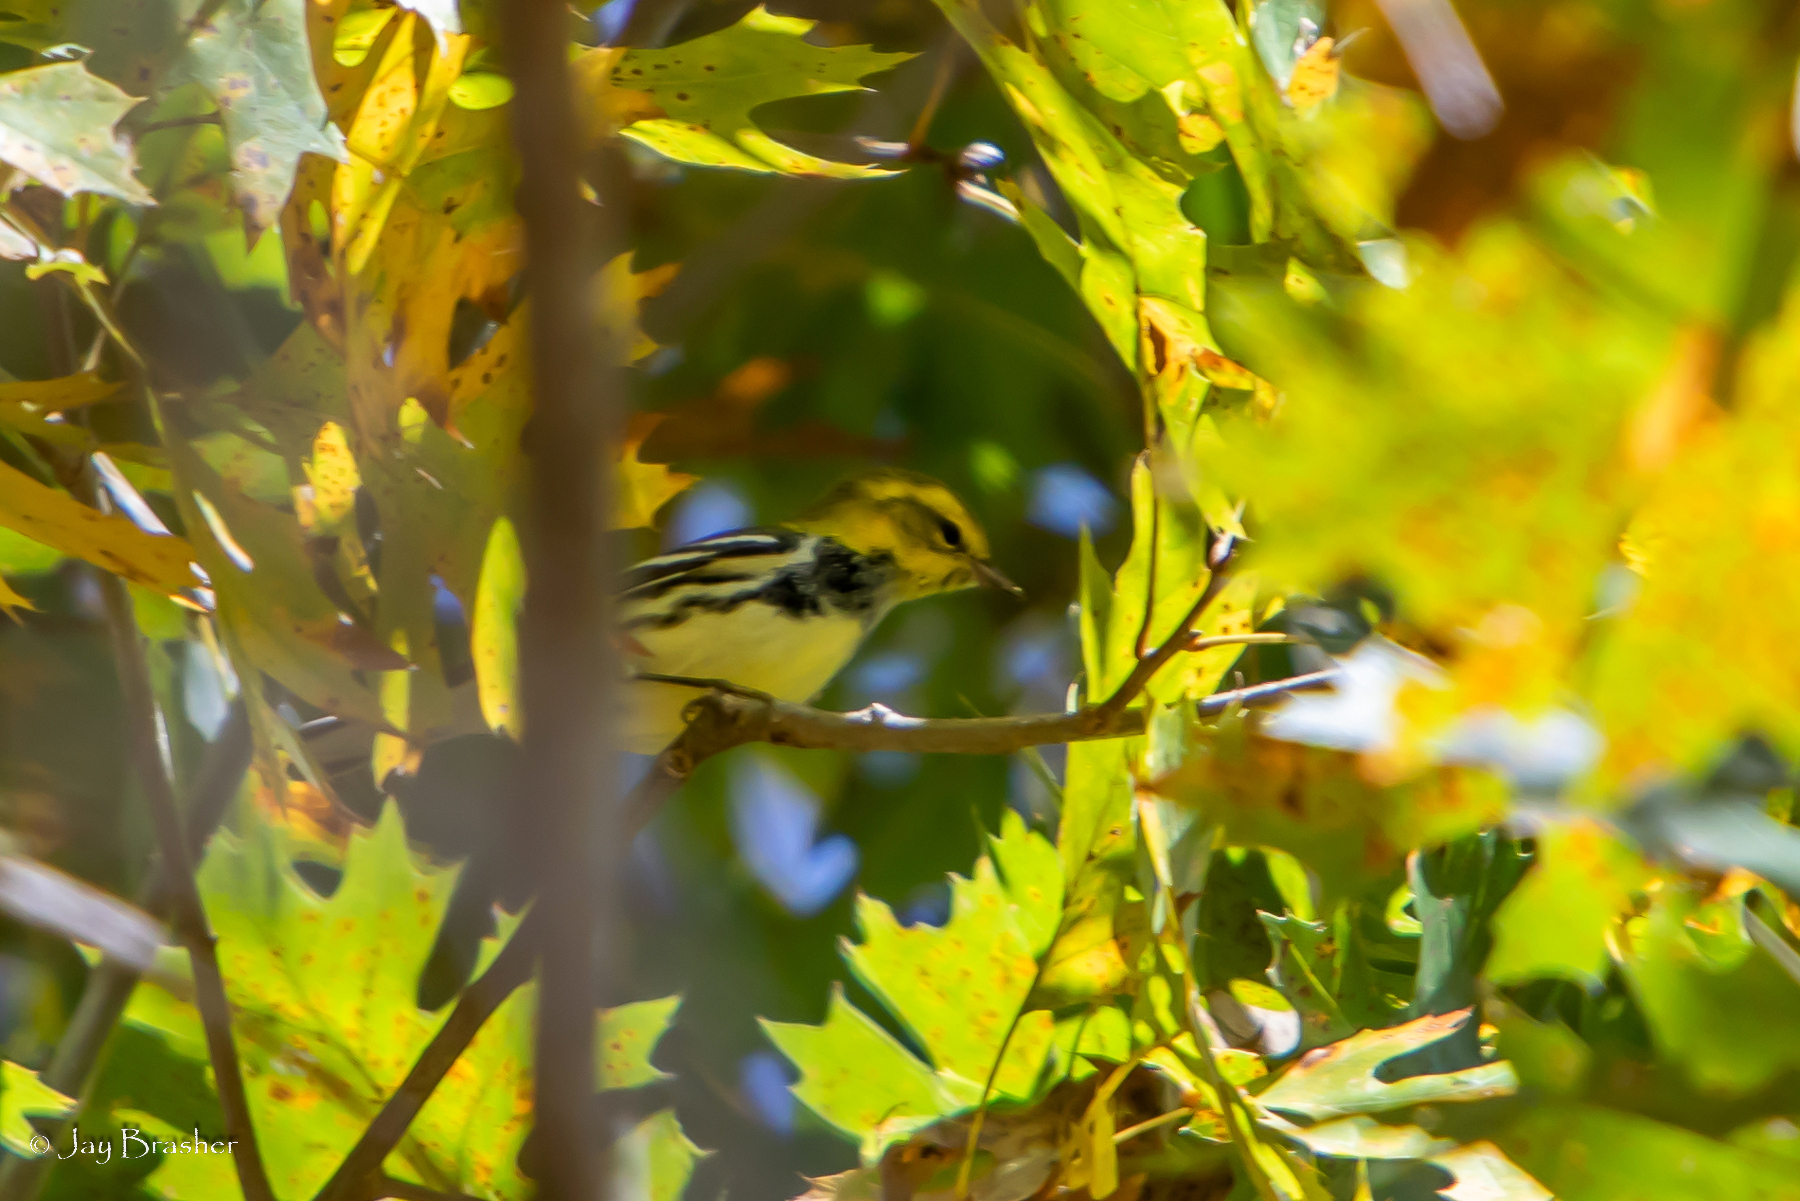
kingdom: Animalia
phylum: Chordata
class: Aves
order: Passeriformes
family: Parulidae
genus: Setophaga
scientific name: Setophaga virens
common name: Black-throated green warbler
